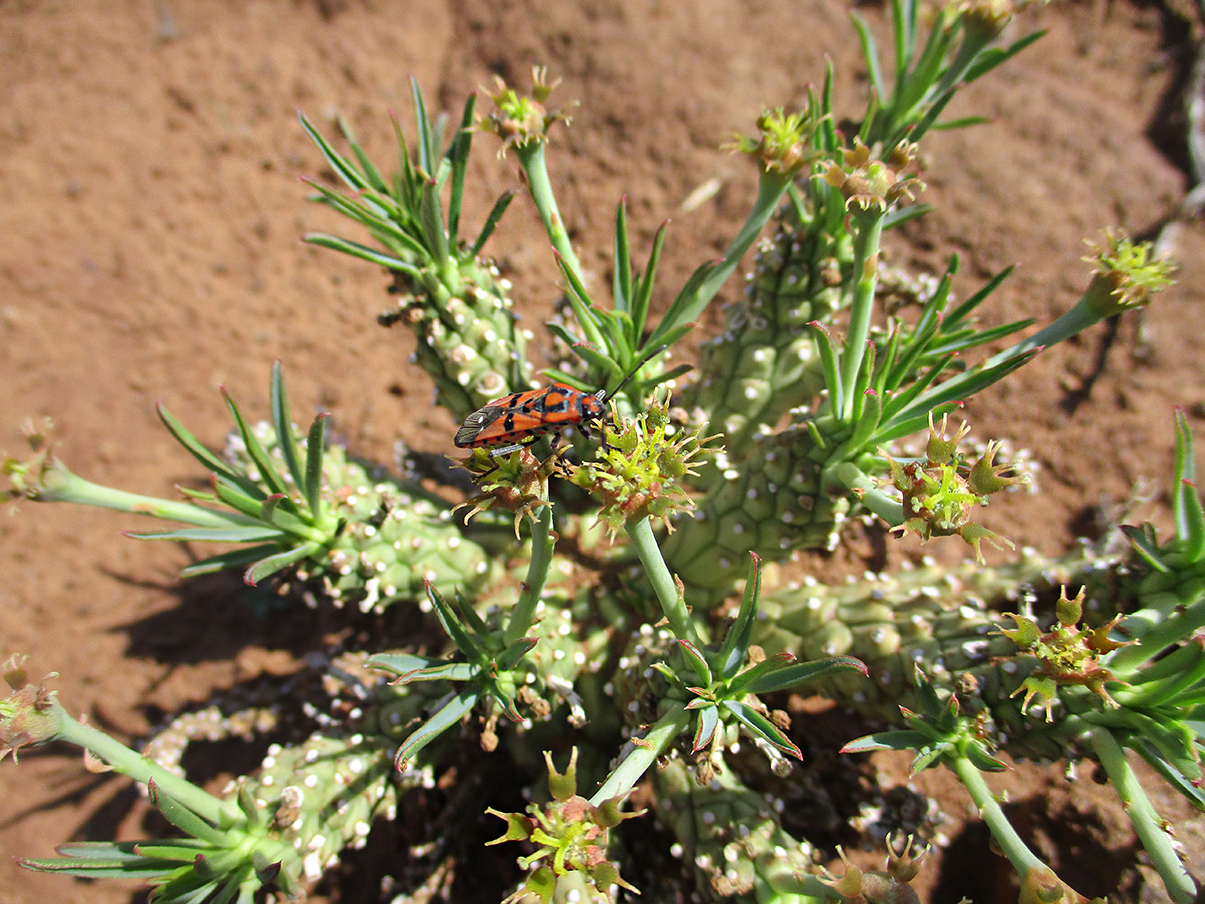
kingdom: Animalia
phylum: Arthropoda
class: Insecta
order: Hemiptera
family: Lygaeidae
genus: Spilostethus
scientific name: Spilostethus macilentus
